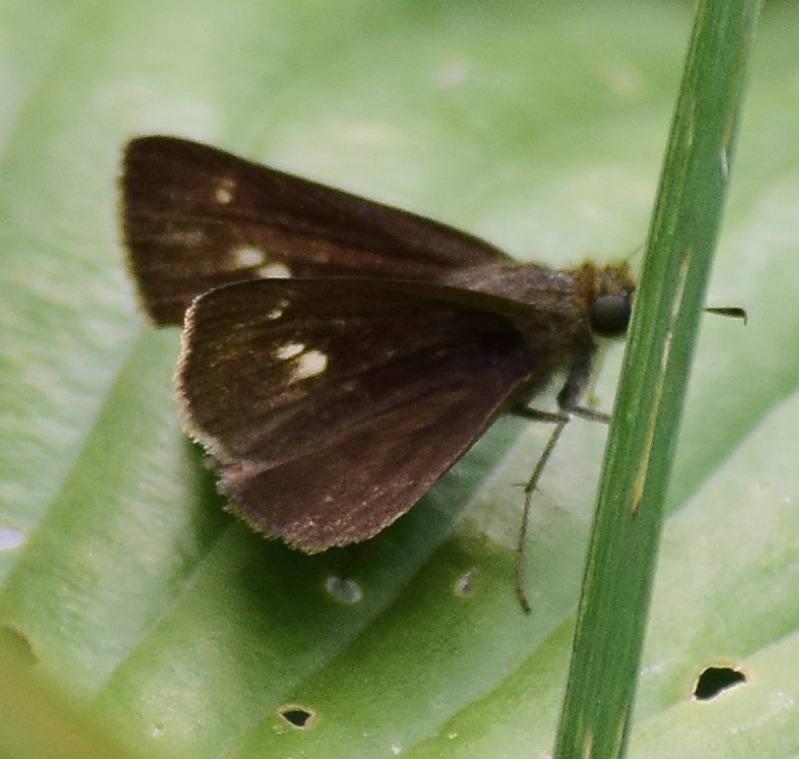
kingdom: Animalia
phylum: Arthropoda
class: Insecta
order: Lepidoptera
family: Hesperiidae
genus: Euphyes
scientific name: Euphyes vestris
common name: Dun skipper
